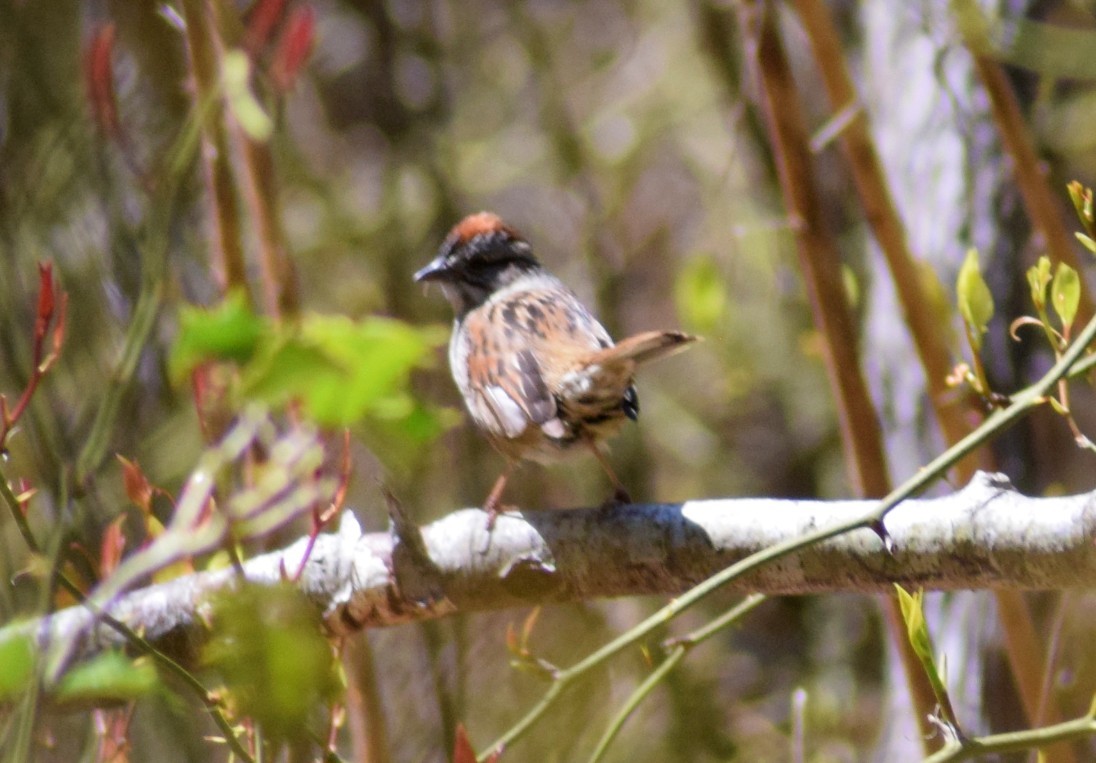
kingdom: Animalia
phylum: Chordata
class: Aves
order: Passeriformes
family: Passerellidae
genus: Melospiza
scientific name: Melospiza georgiana
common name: Swamp sparrow
